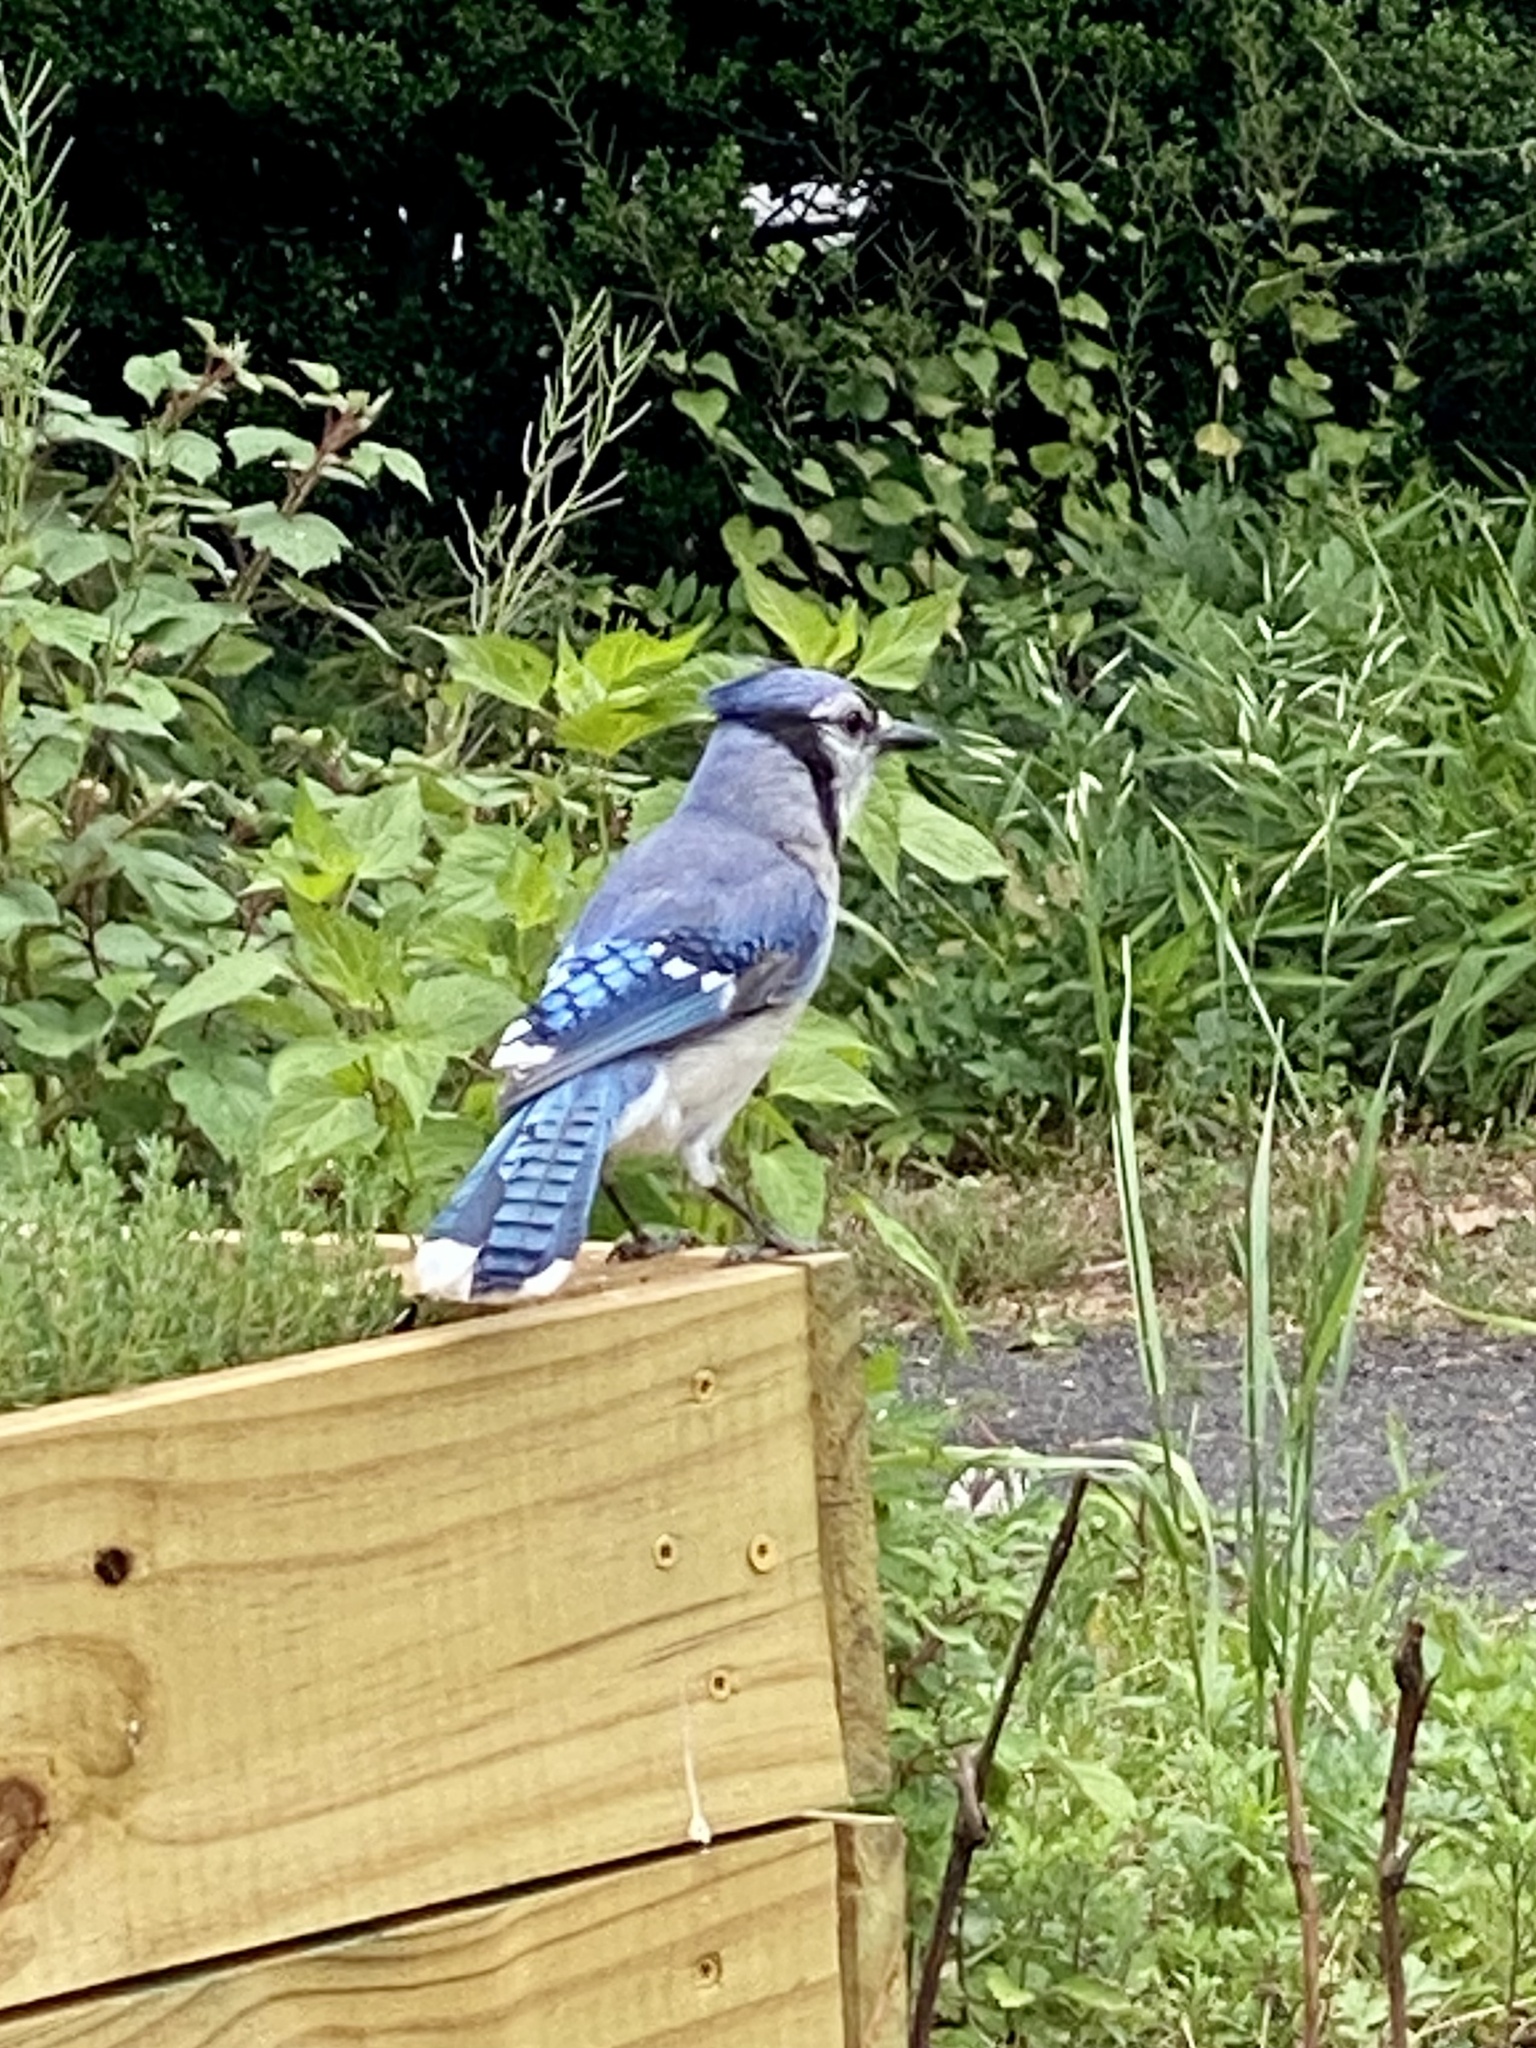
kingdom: Animalia
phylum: Chordata
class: Aves
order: Passeriformes
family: Corvidae
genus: Cyanocitta
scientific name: Cyanocitta cristata
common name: Blue jay
